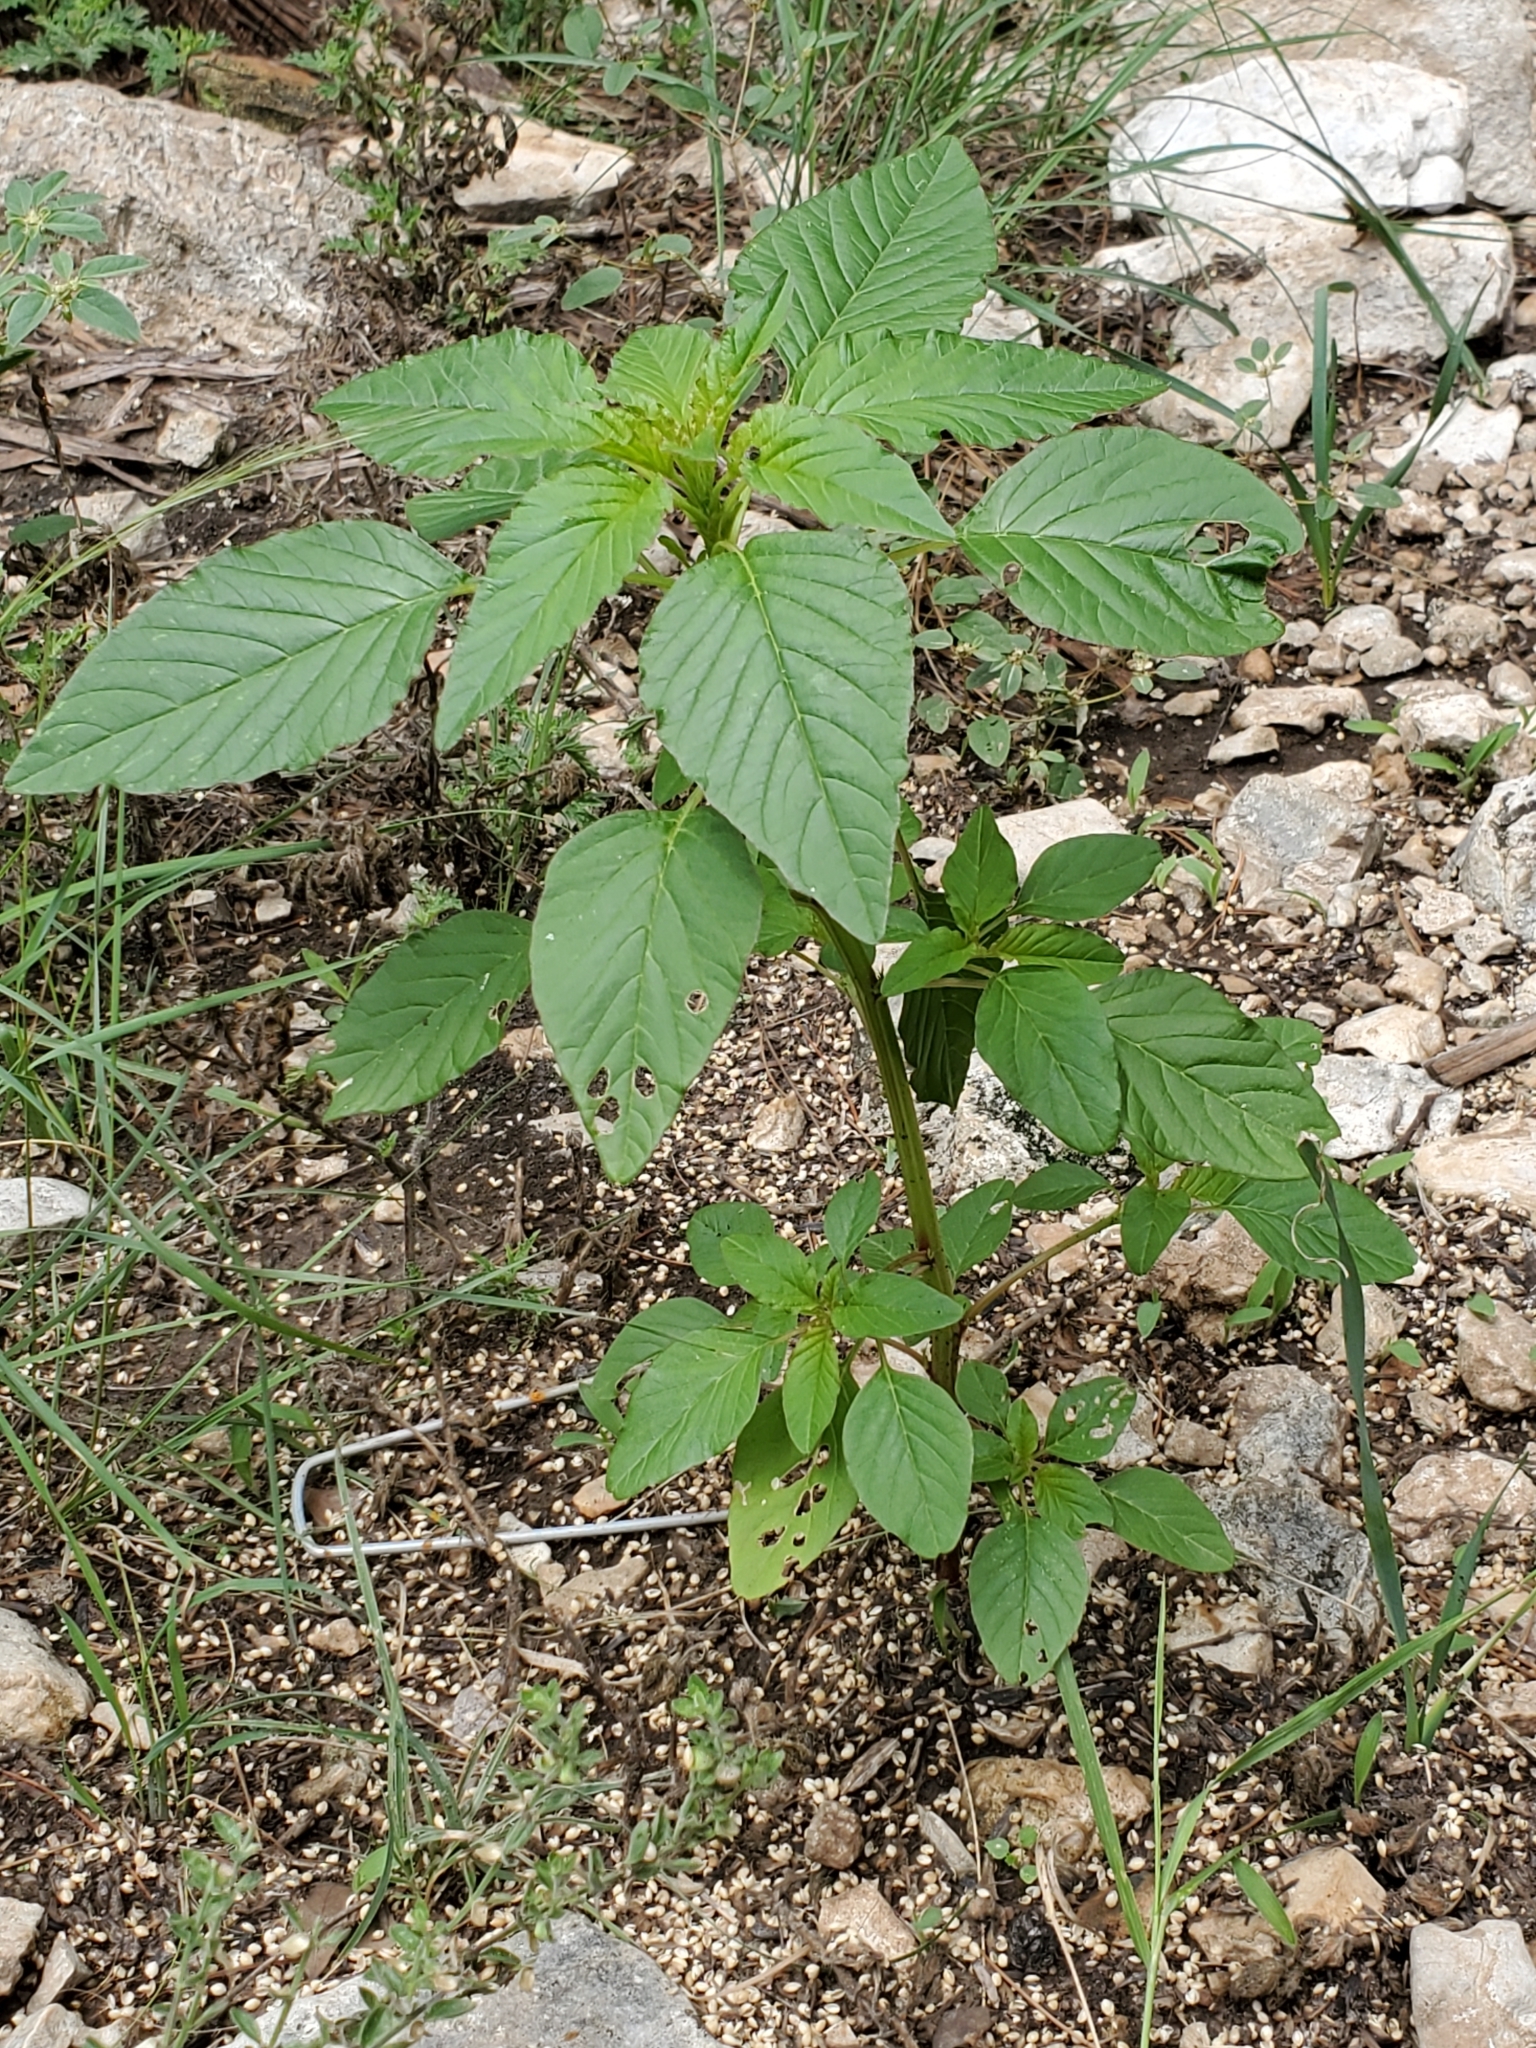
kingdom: Plantae
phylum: Tracheophyta
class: Magnoliopsida
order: Caryophyllales
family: Amaranthaceae
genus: Amaranthus
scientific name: Amaranthus palmeri
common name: Dioecious amaranth
